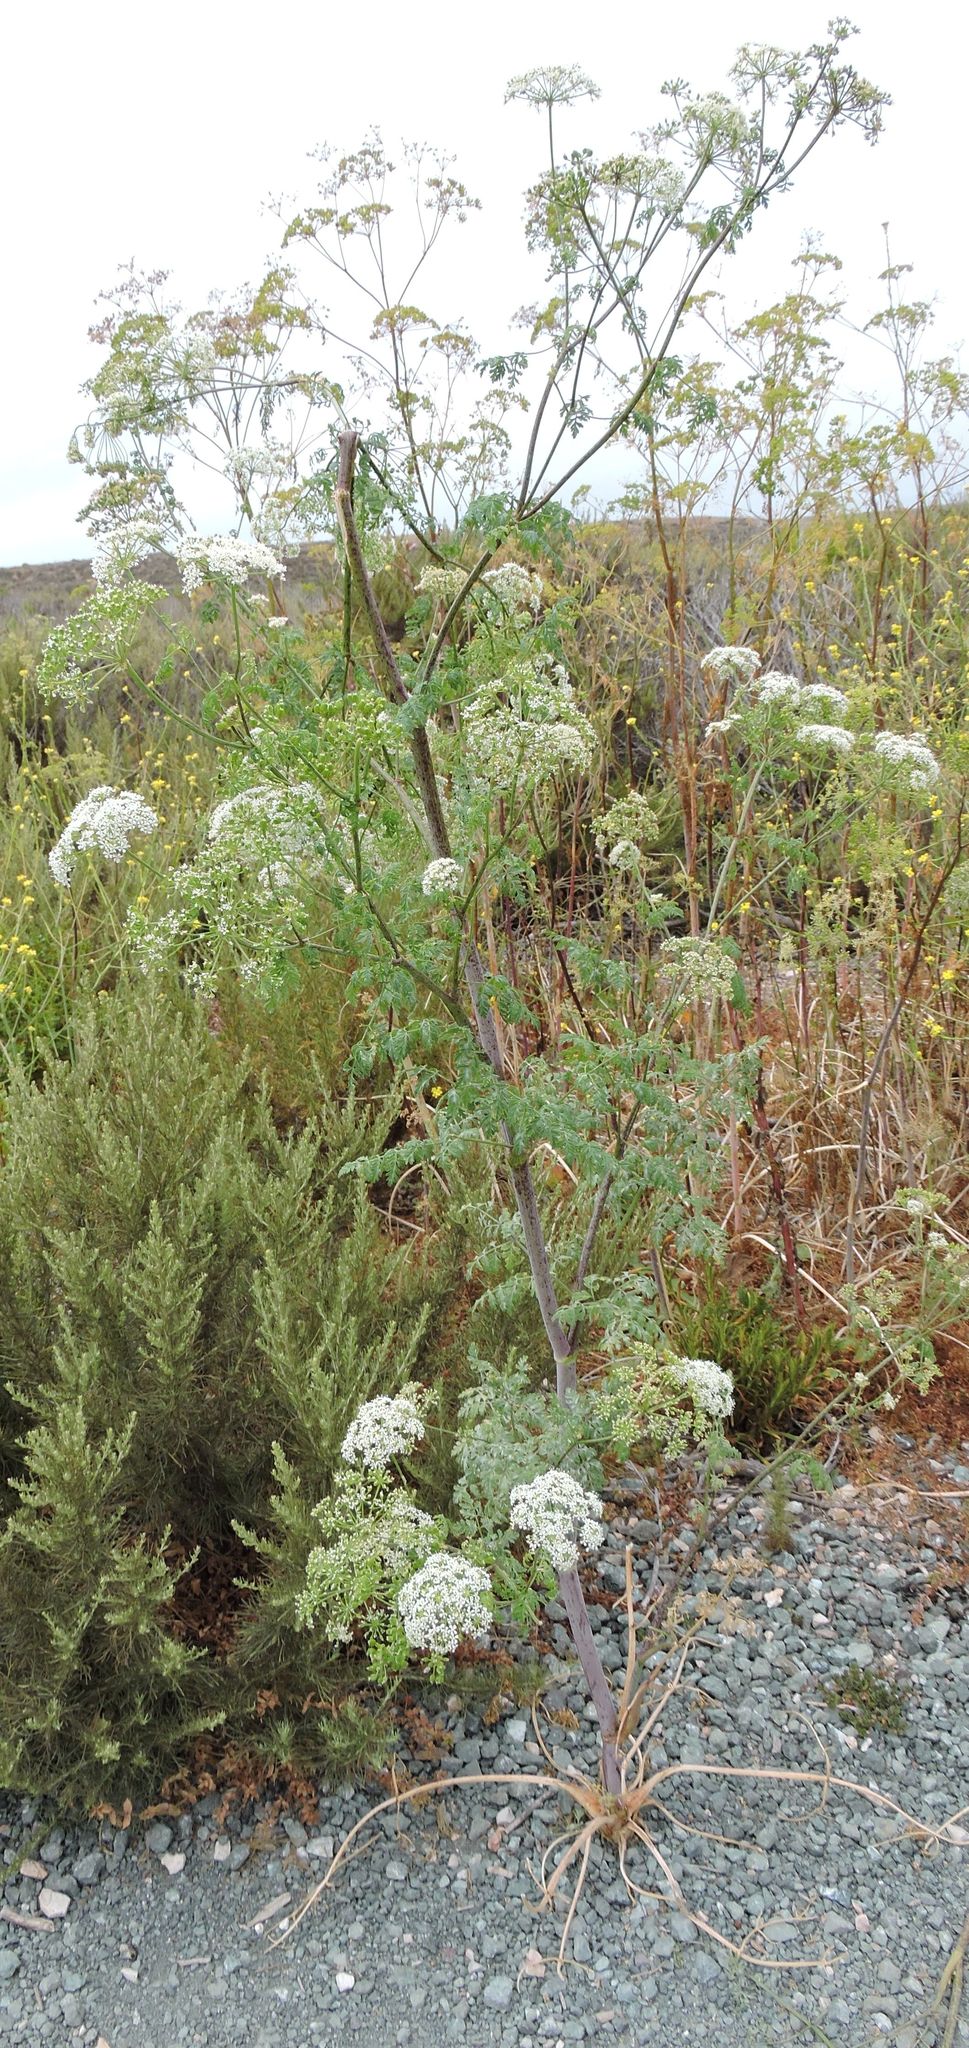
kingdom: Plantae
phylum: Tracheophyta
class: Magnoliopsida
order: Apiales
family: Apiaceae
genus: Conium
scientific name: Conium maculatum
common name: Hemlock
